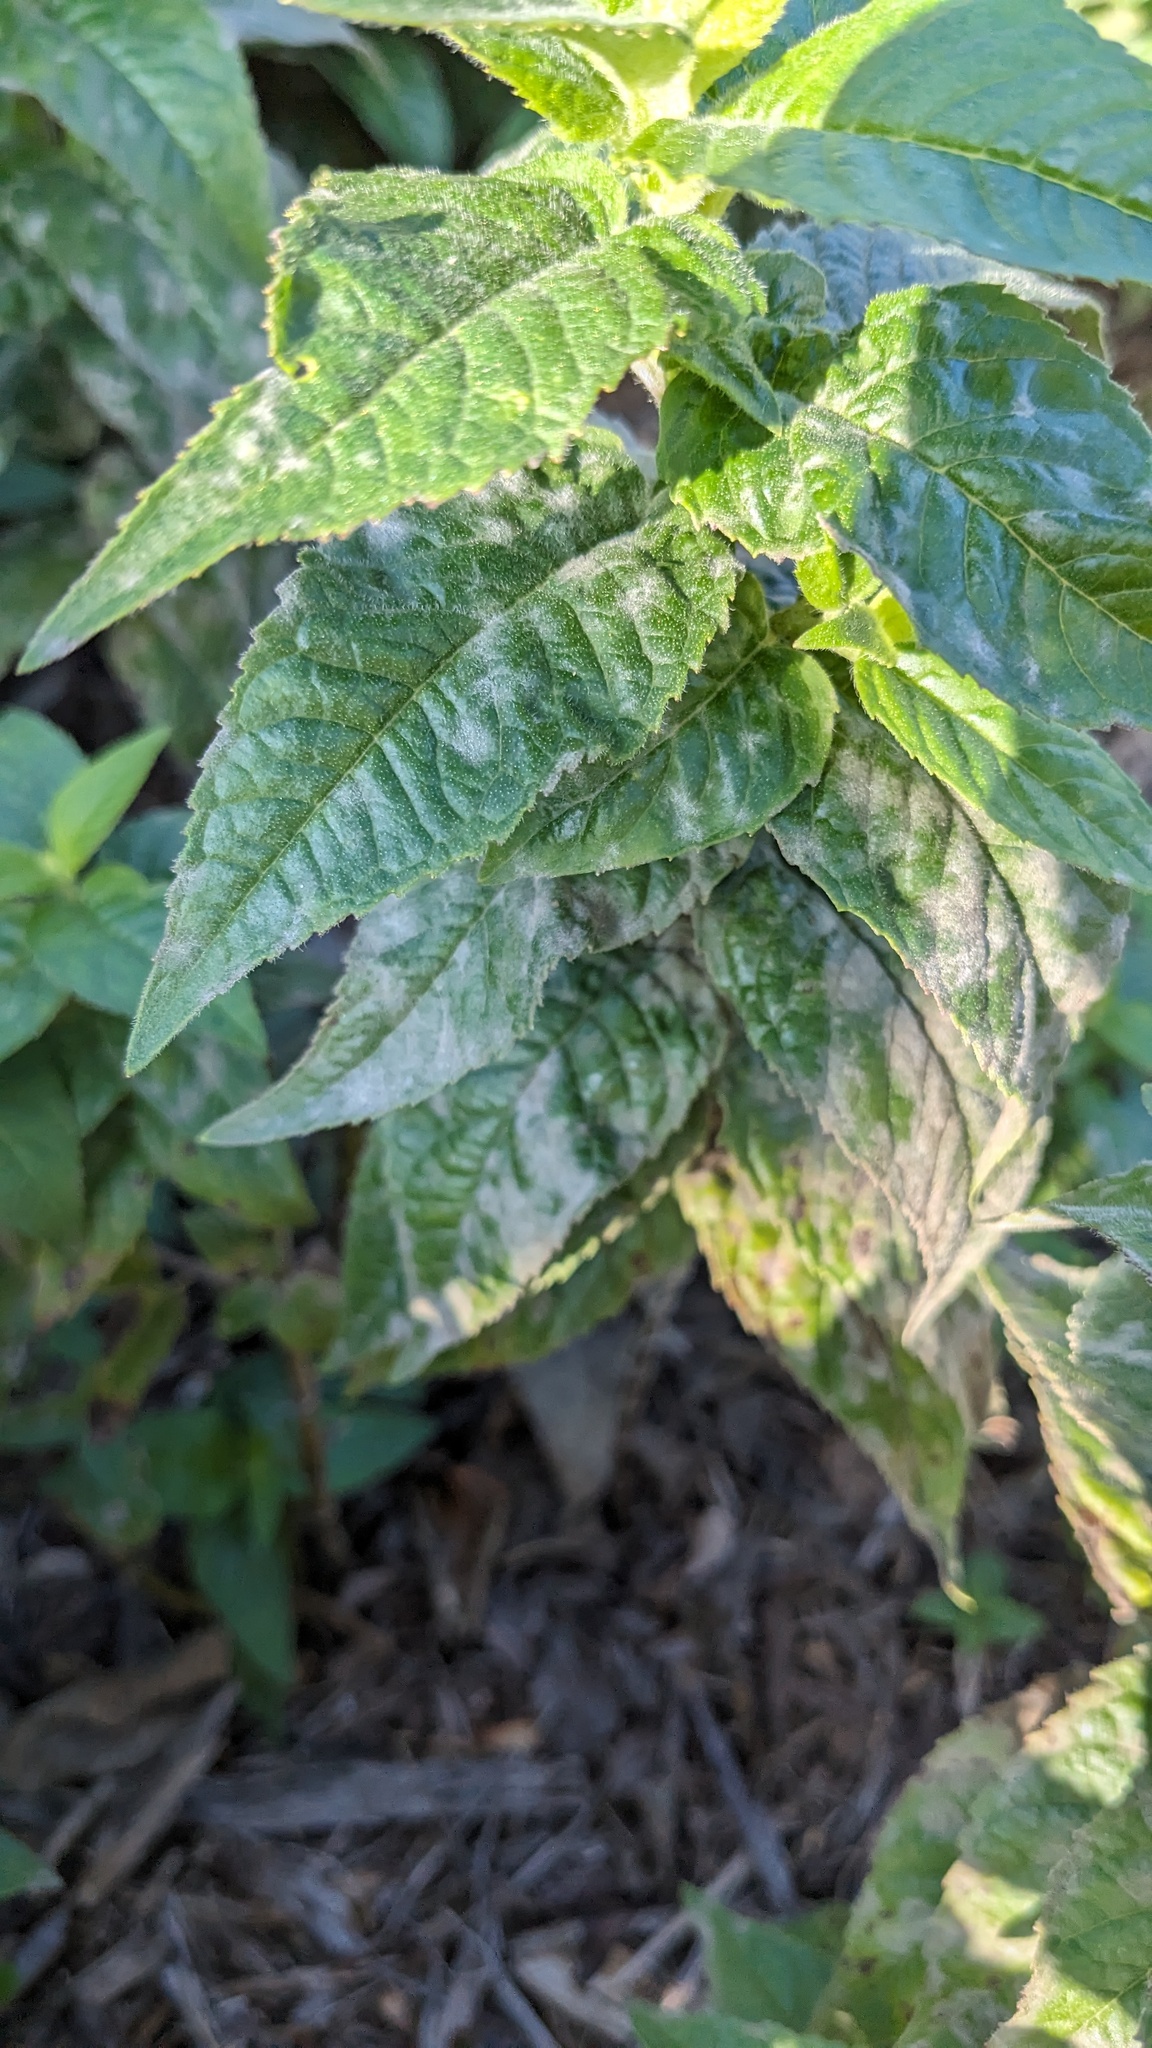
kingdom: Fungi
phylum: Ascomycota
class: Leotiomycetes
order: Helotiales
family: Erysiphaceae
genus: Golovinomyces
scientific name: Golovinomyces monardae
